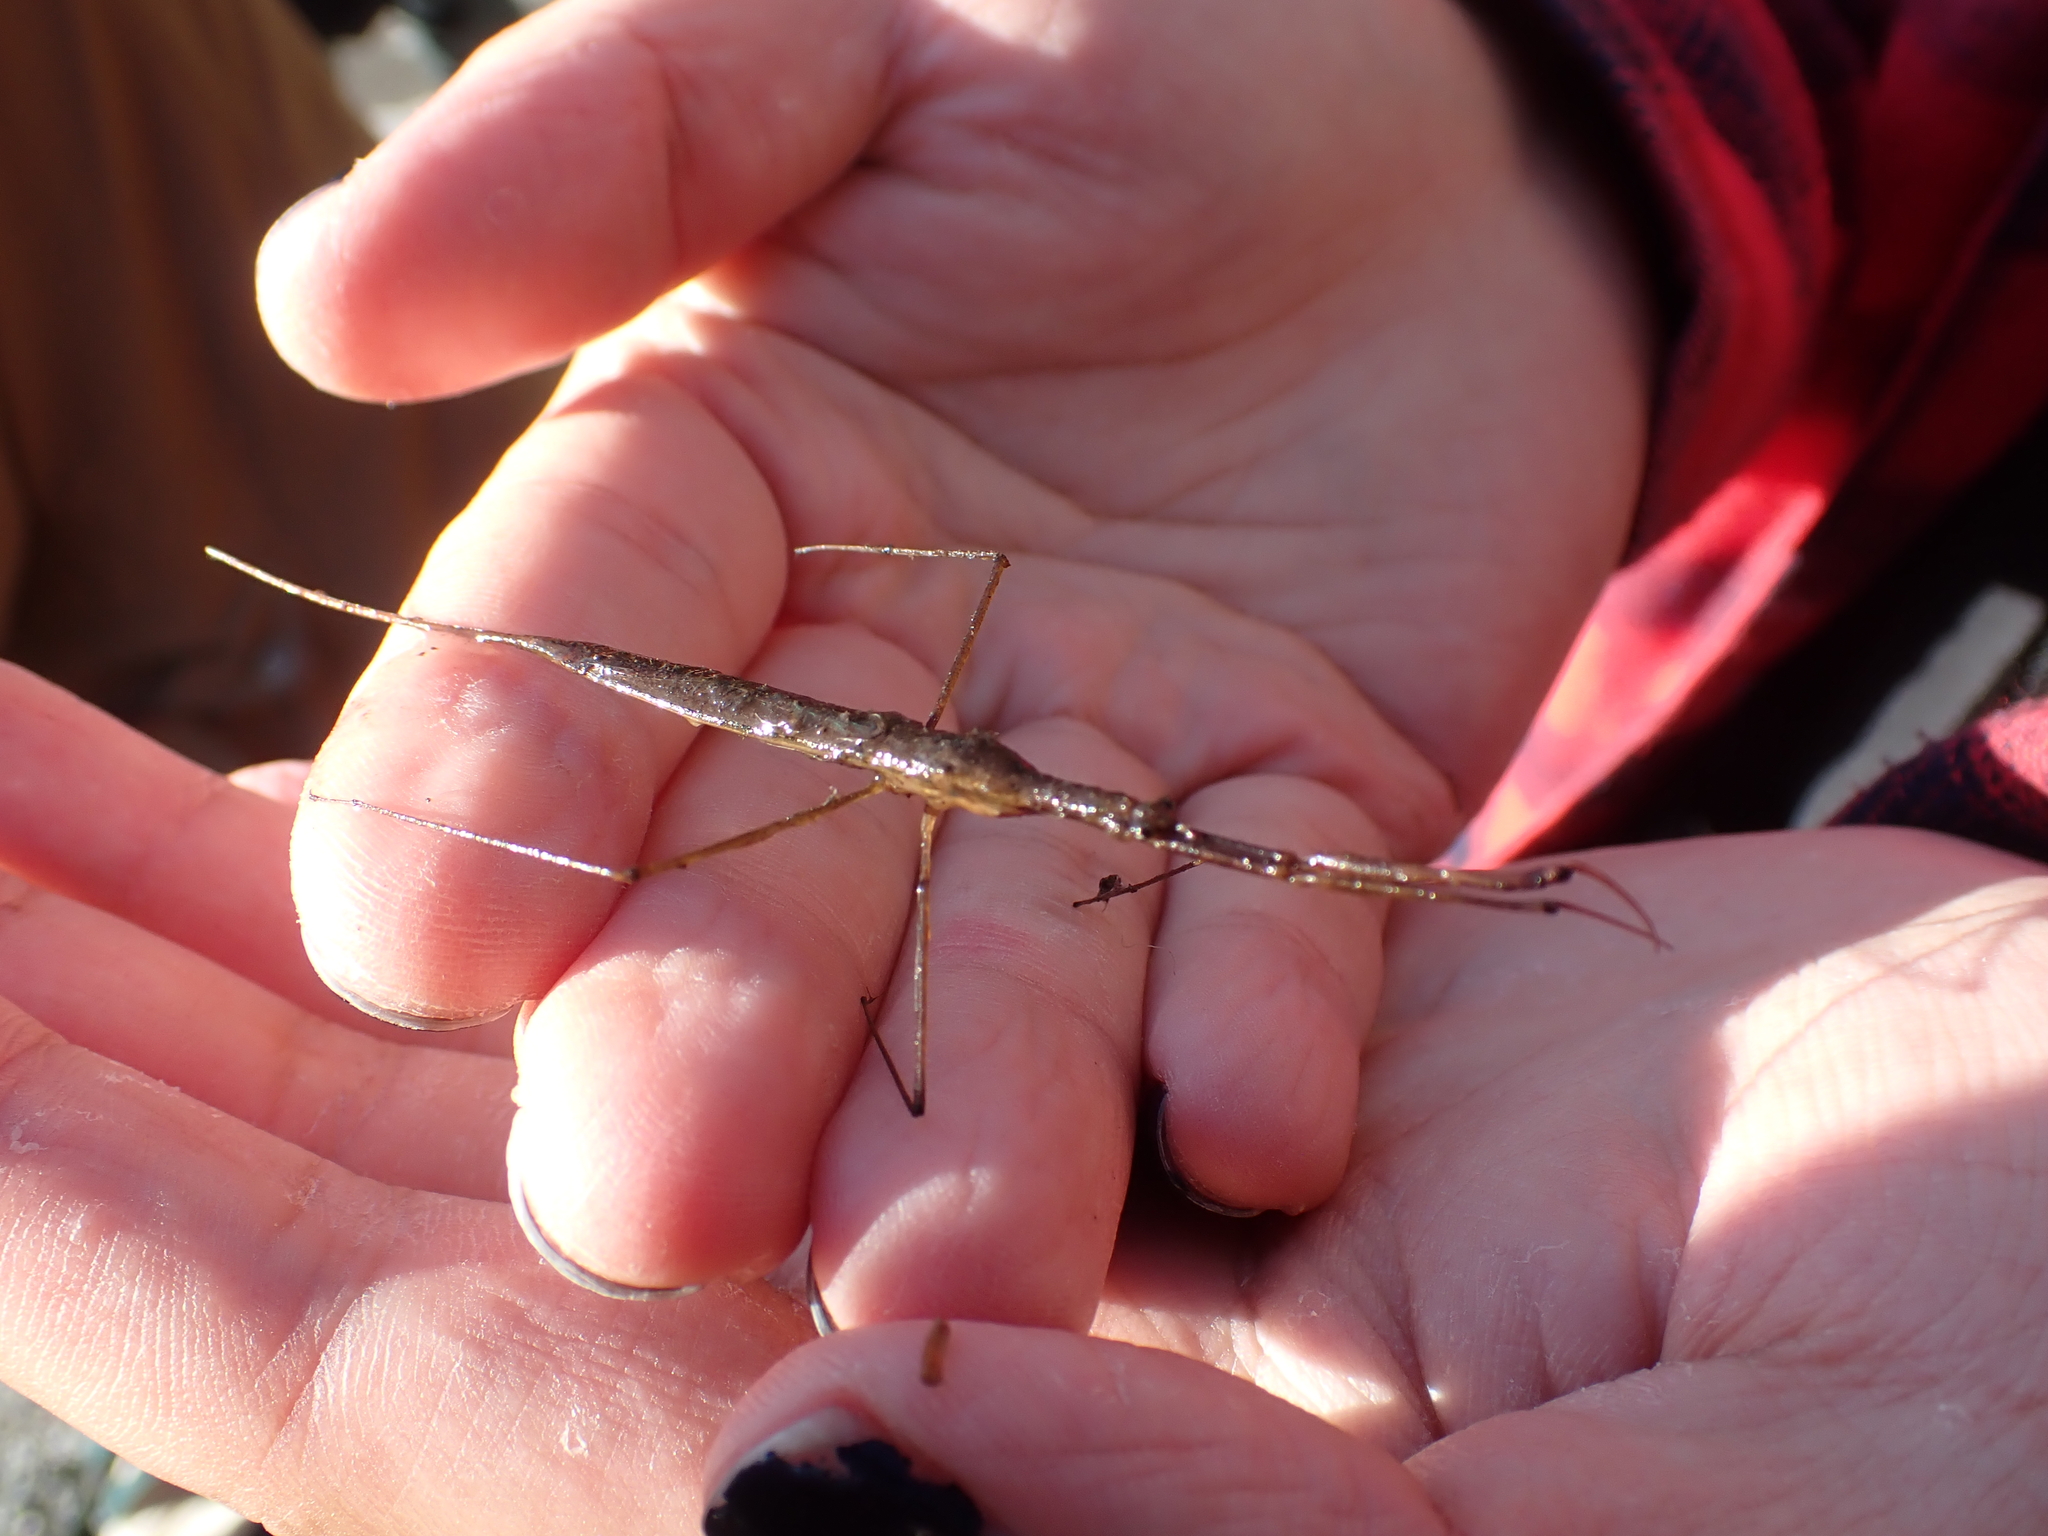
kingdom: Animalia
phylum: Arthropoda
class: Insecta
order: Hemiptera
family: Nepidae
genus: Ranatra
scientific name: Ranatra fusca
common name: Brown waterscorpion
